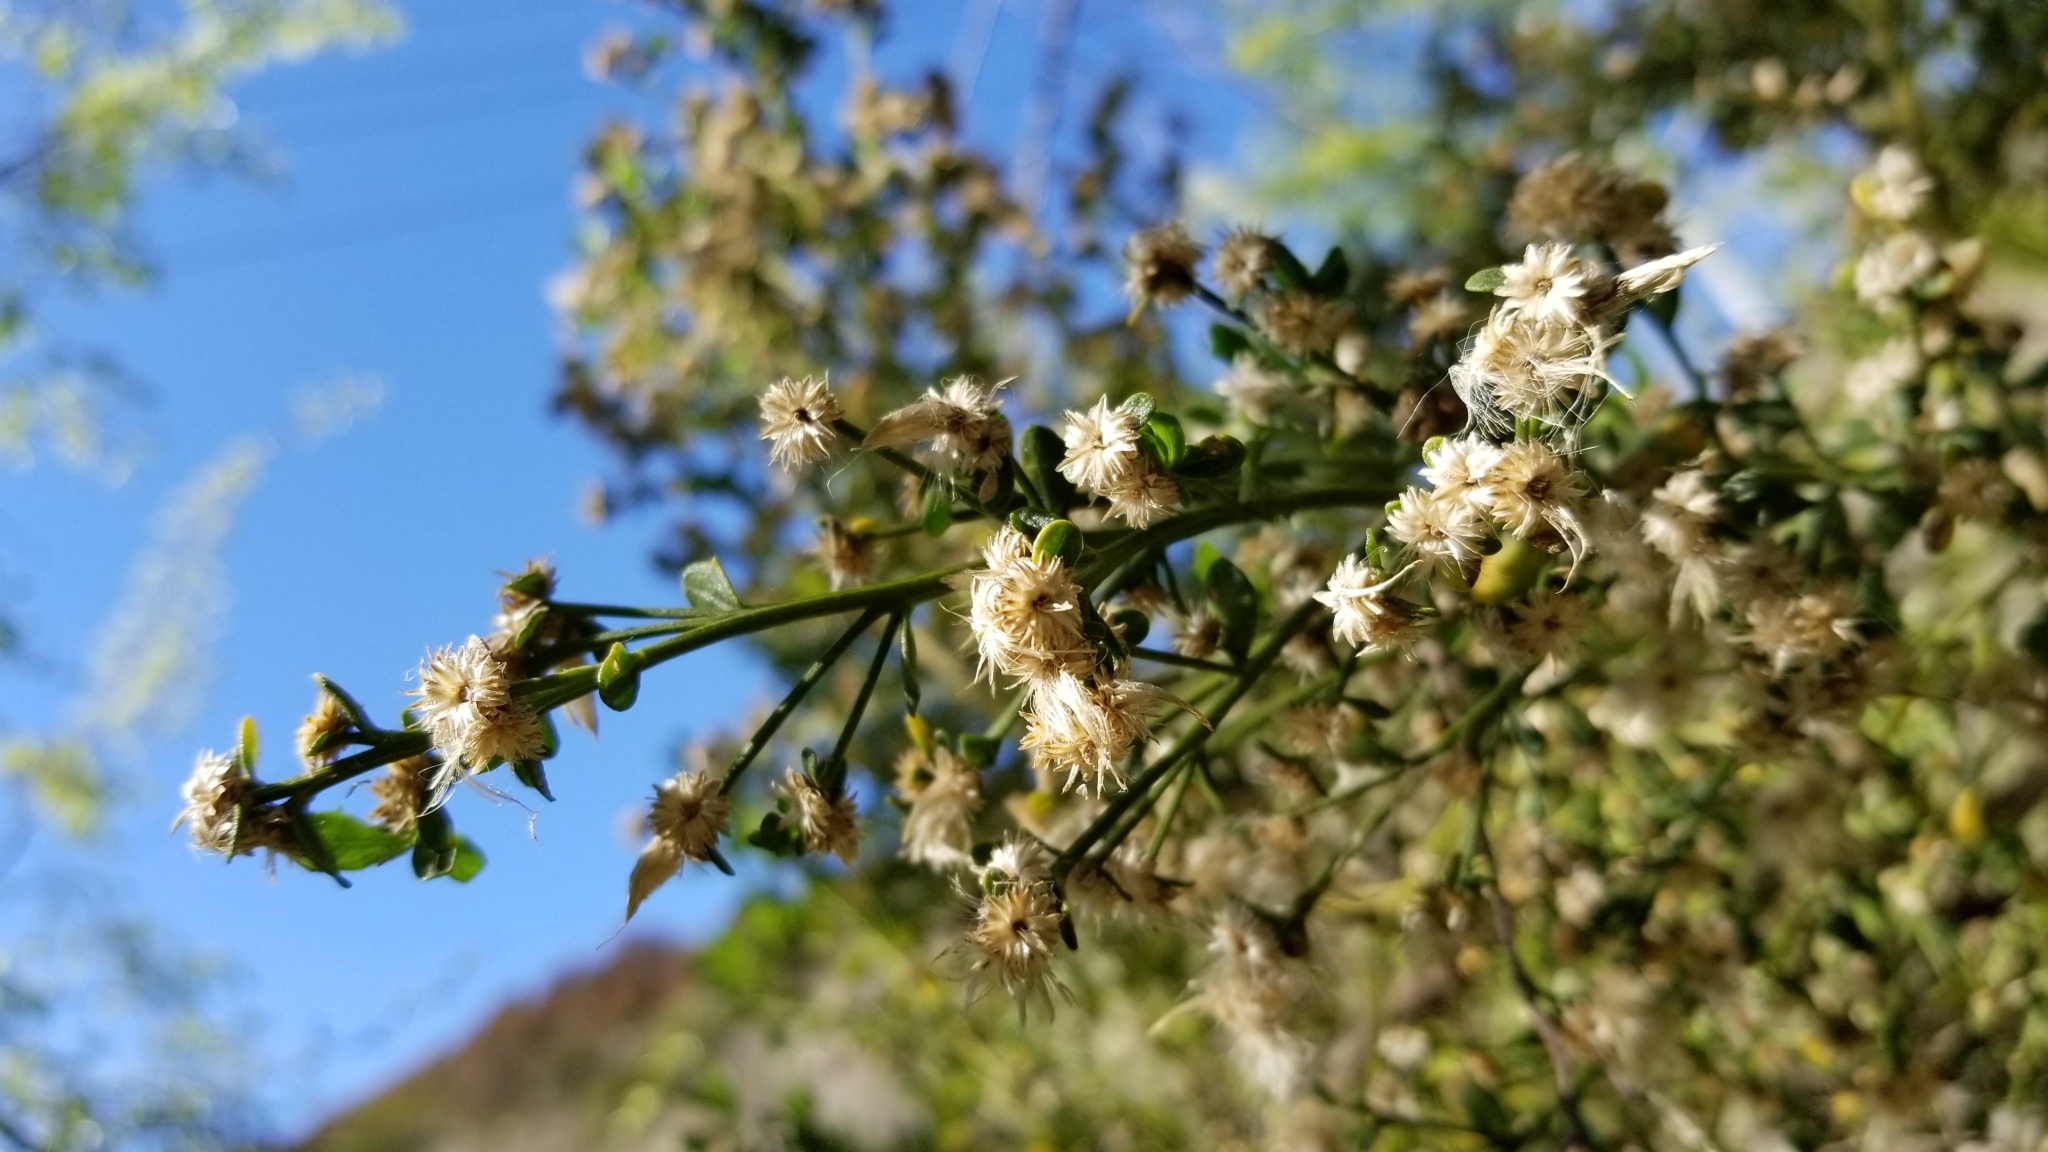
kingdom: Plantae
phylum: Tracheophyta
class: Magnoliopsida
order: Asterales
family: Asteraceae
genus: Baccharis
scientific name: Baccharis pilularis
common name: Coyotebrush
